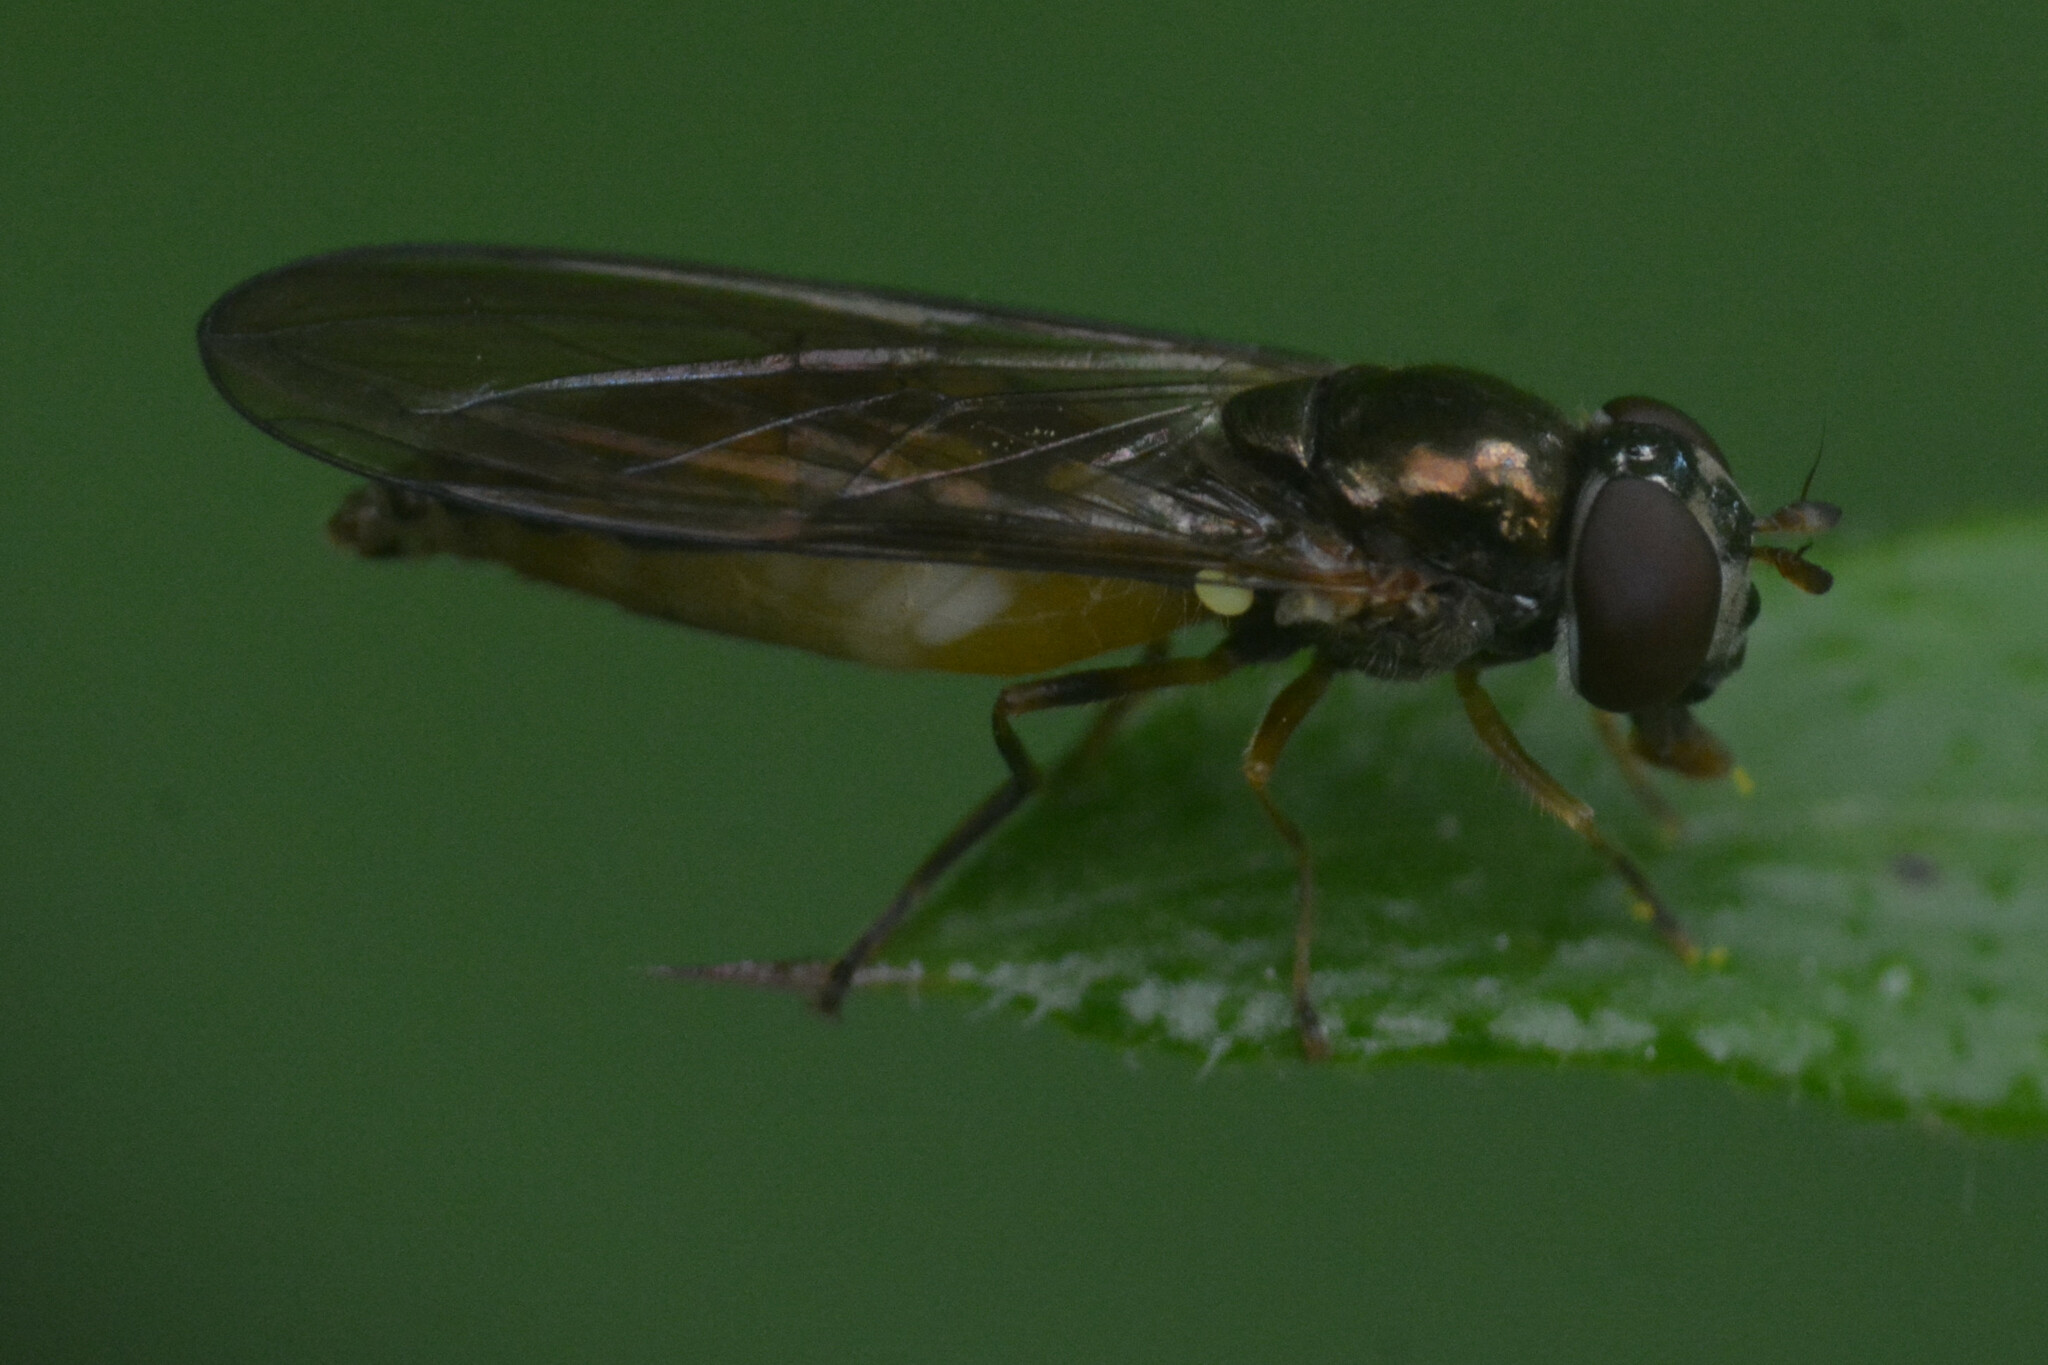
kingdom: Animalia
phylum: Arthropoda
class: Insecta
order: Diptera
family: Syrphidae
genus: Melanostoma
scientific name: Melanostoma scalare
